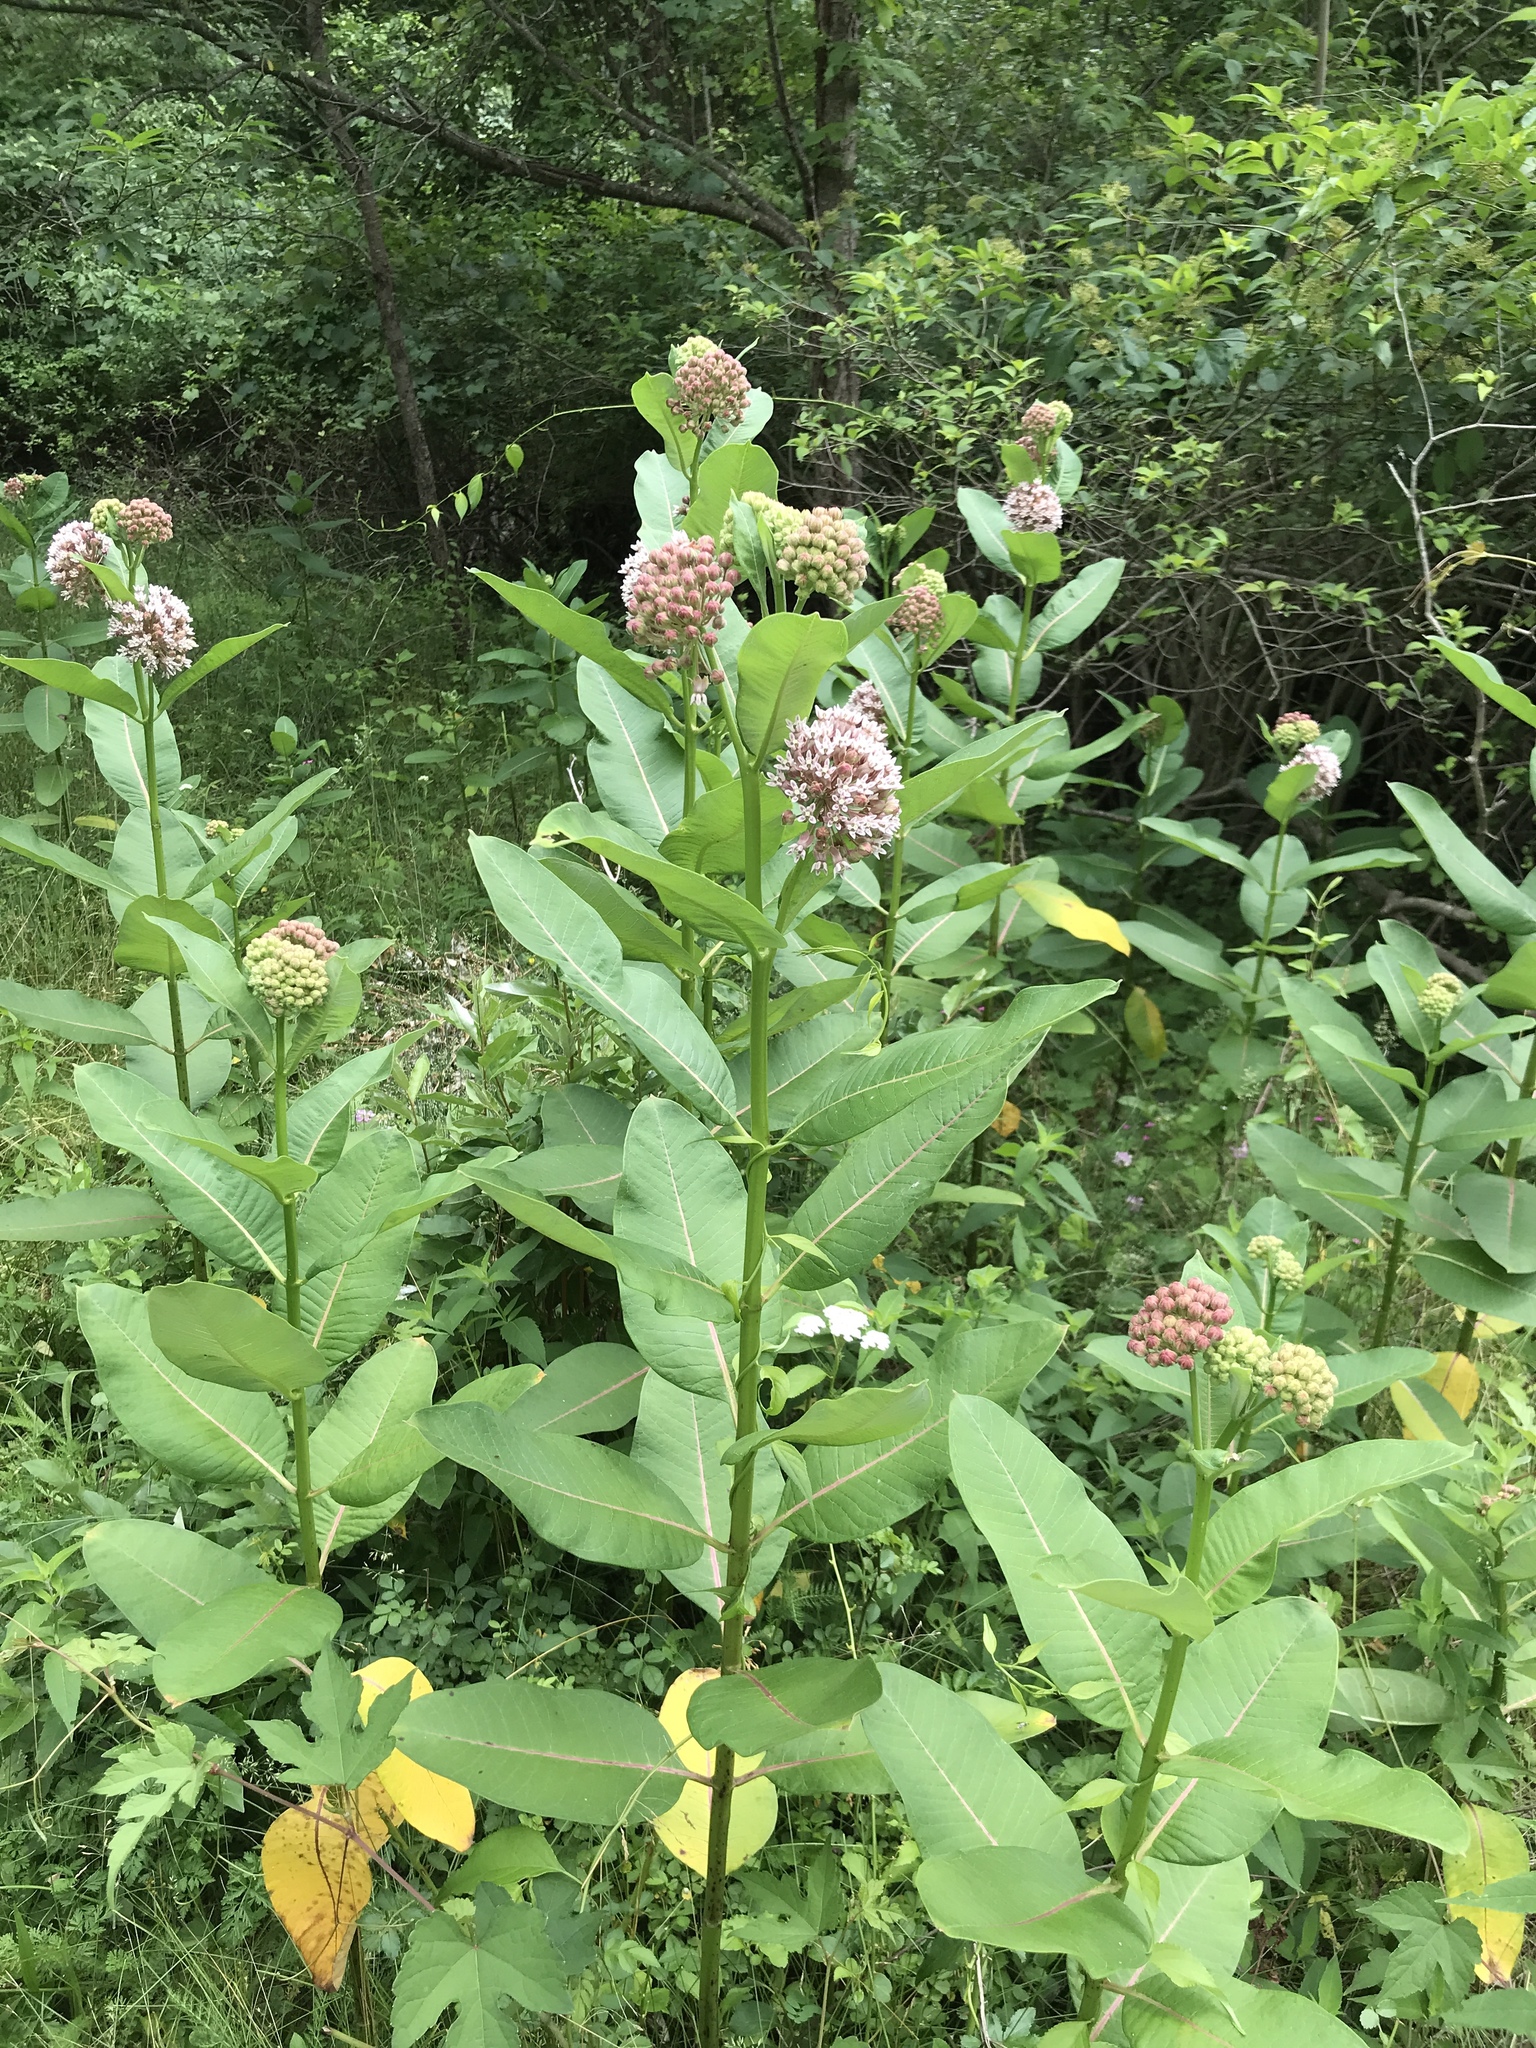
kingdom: Plantae
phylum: Tracheophyta
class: Magnoliopsida
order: Gentianales
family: Apocynaceae
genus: Asclepias
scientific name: Asclepias syriaca
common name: Common milkweed
